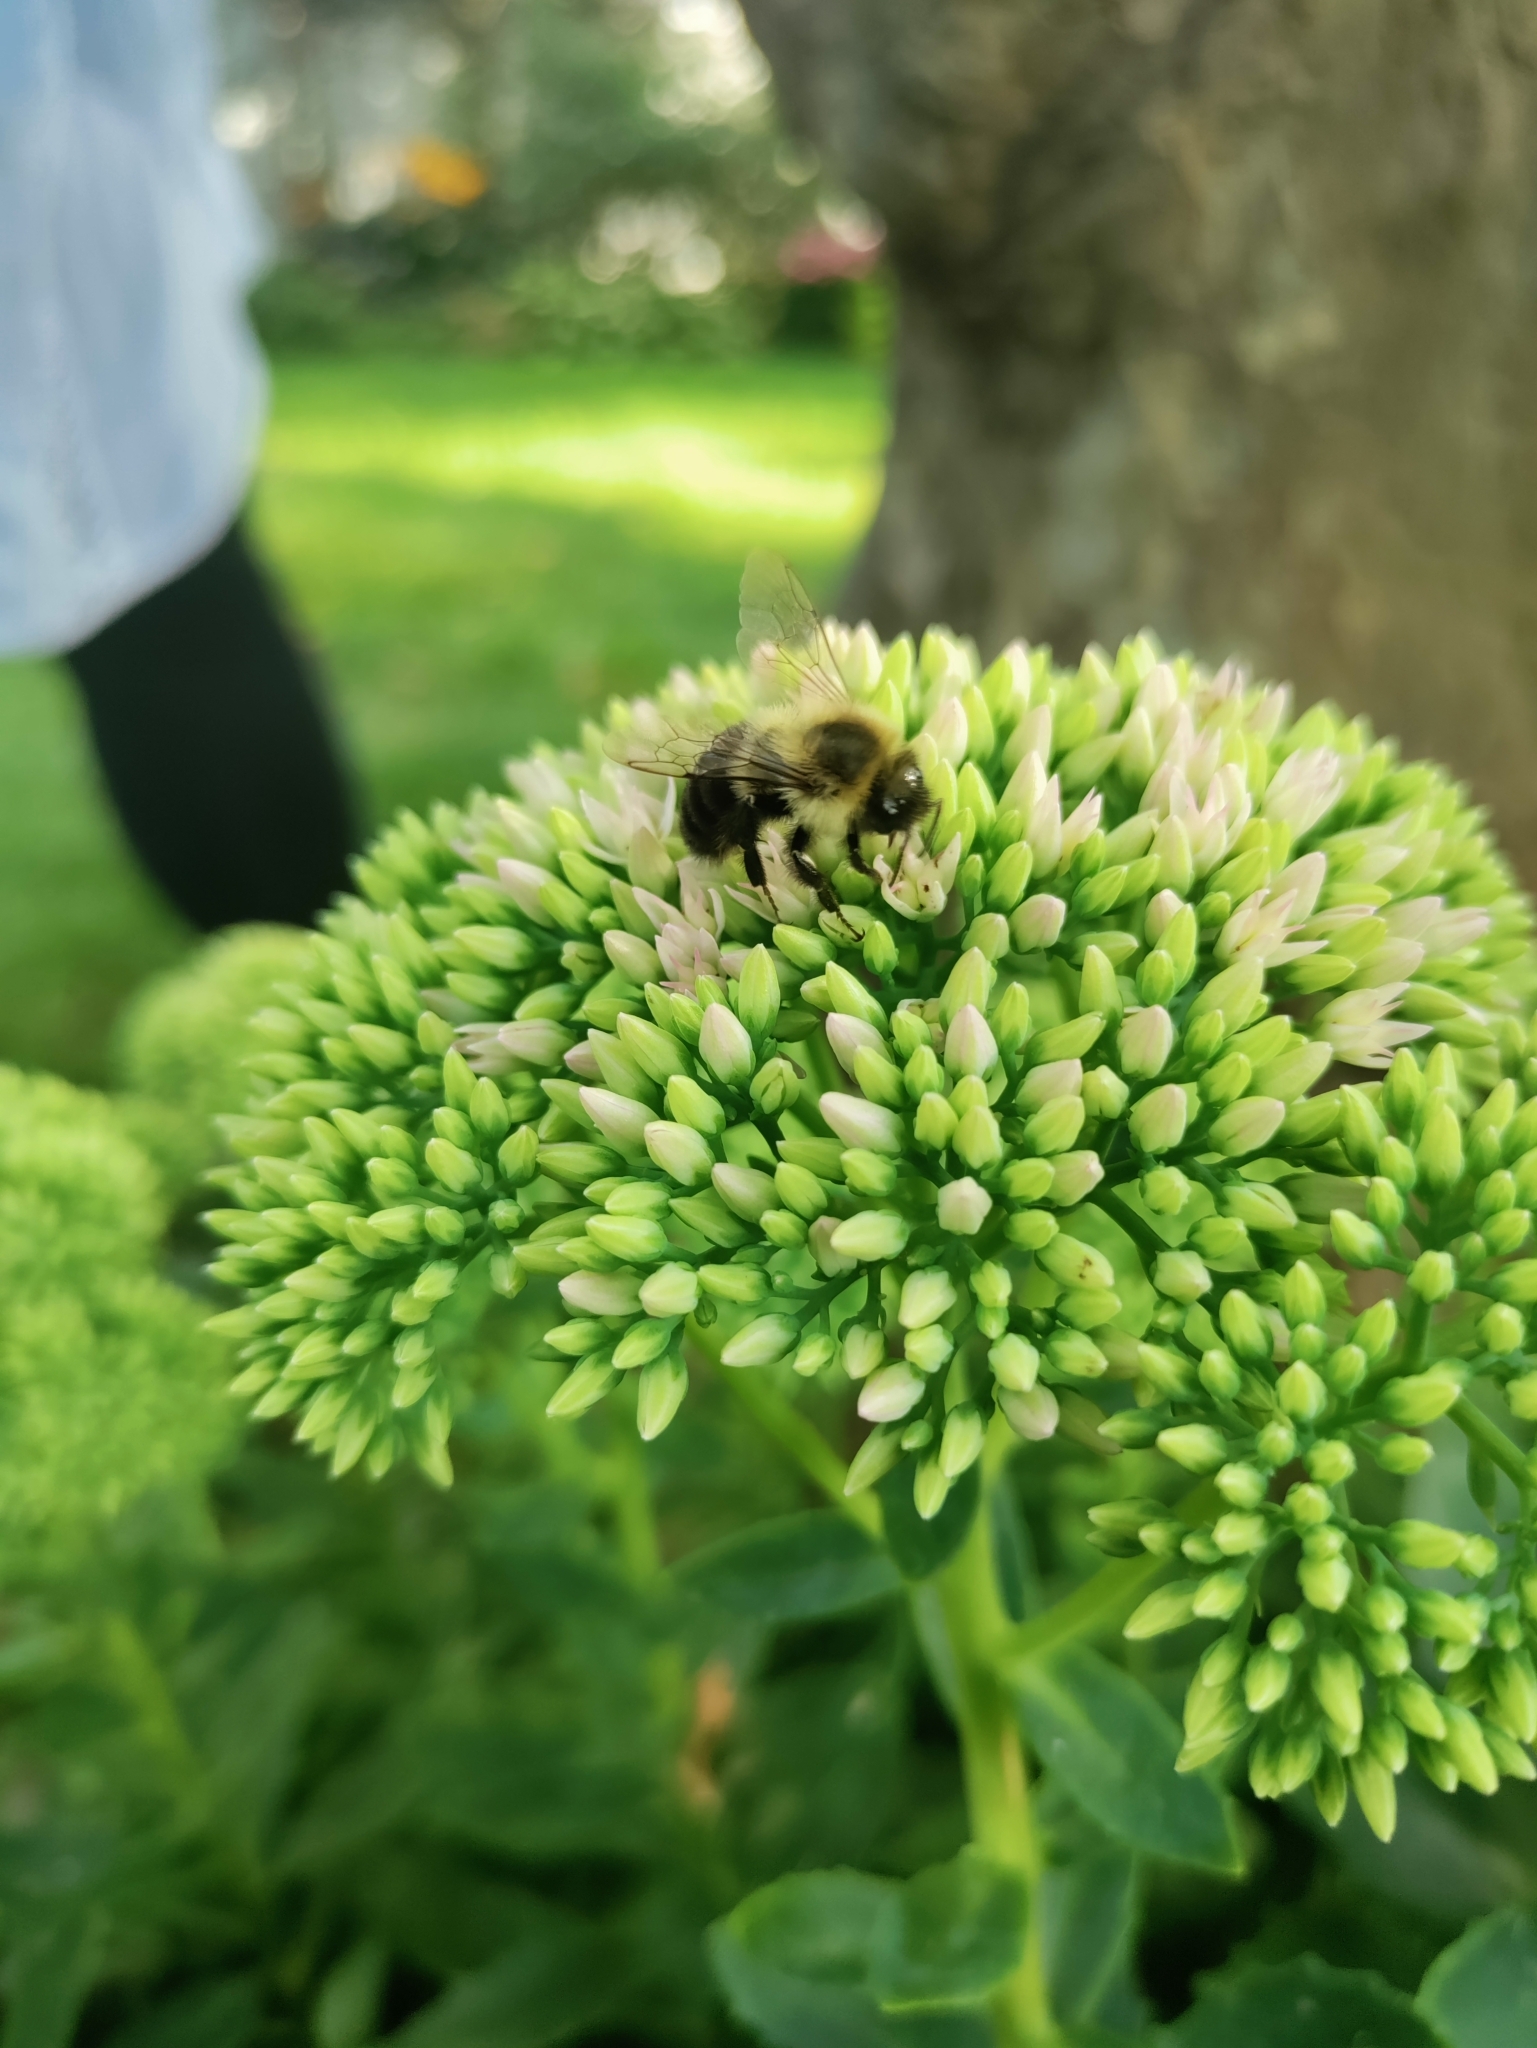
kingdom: Animalia
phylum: Arthropoda
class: Insecta
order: Hymenoptera
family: Apidae
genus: Bombus
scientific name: Bombus impatiens
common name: Common eastern bumble bee
